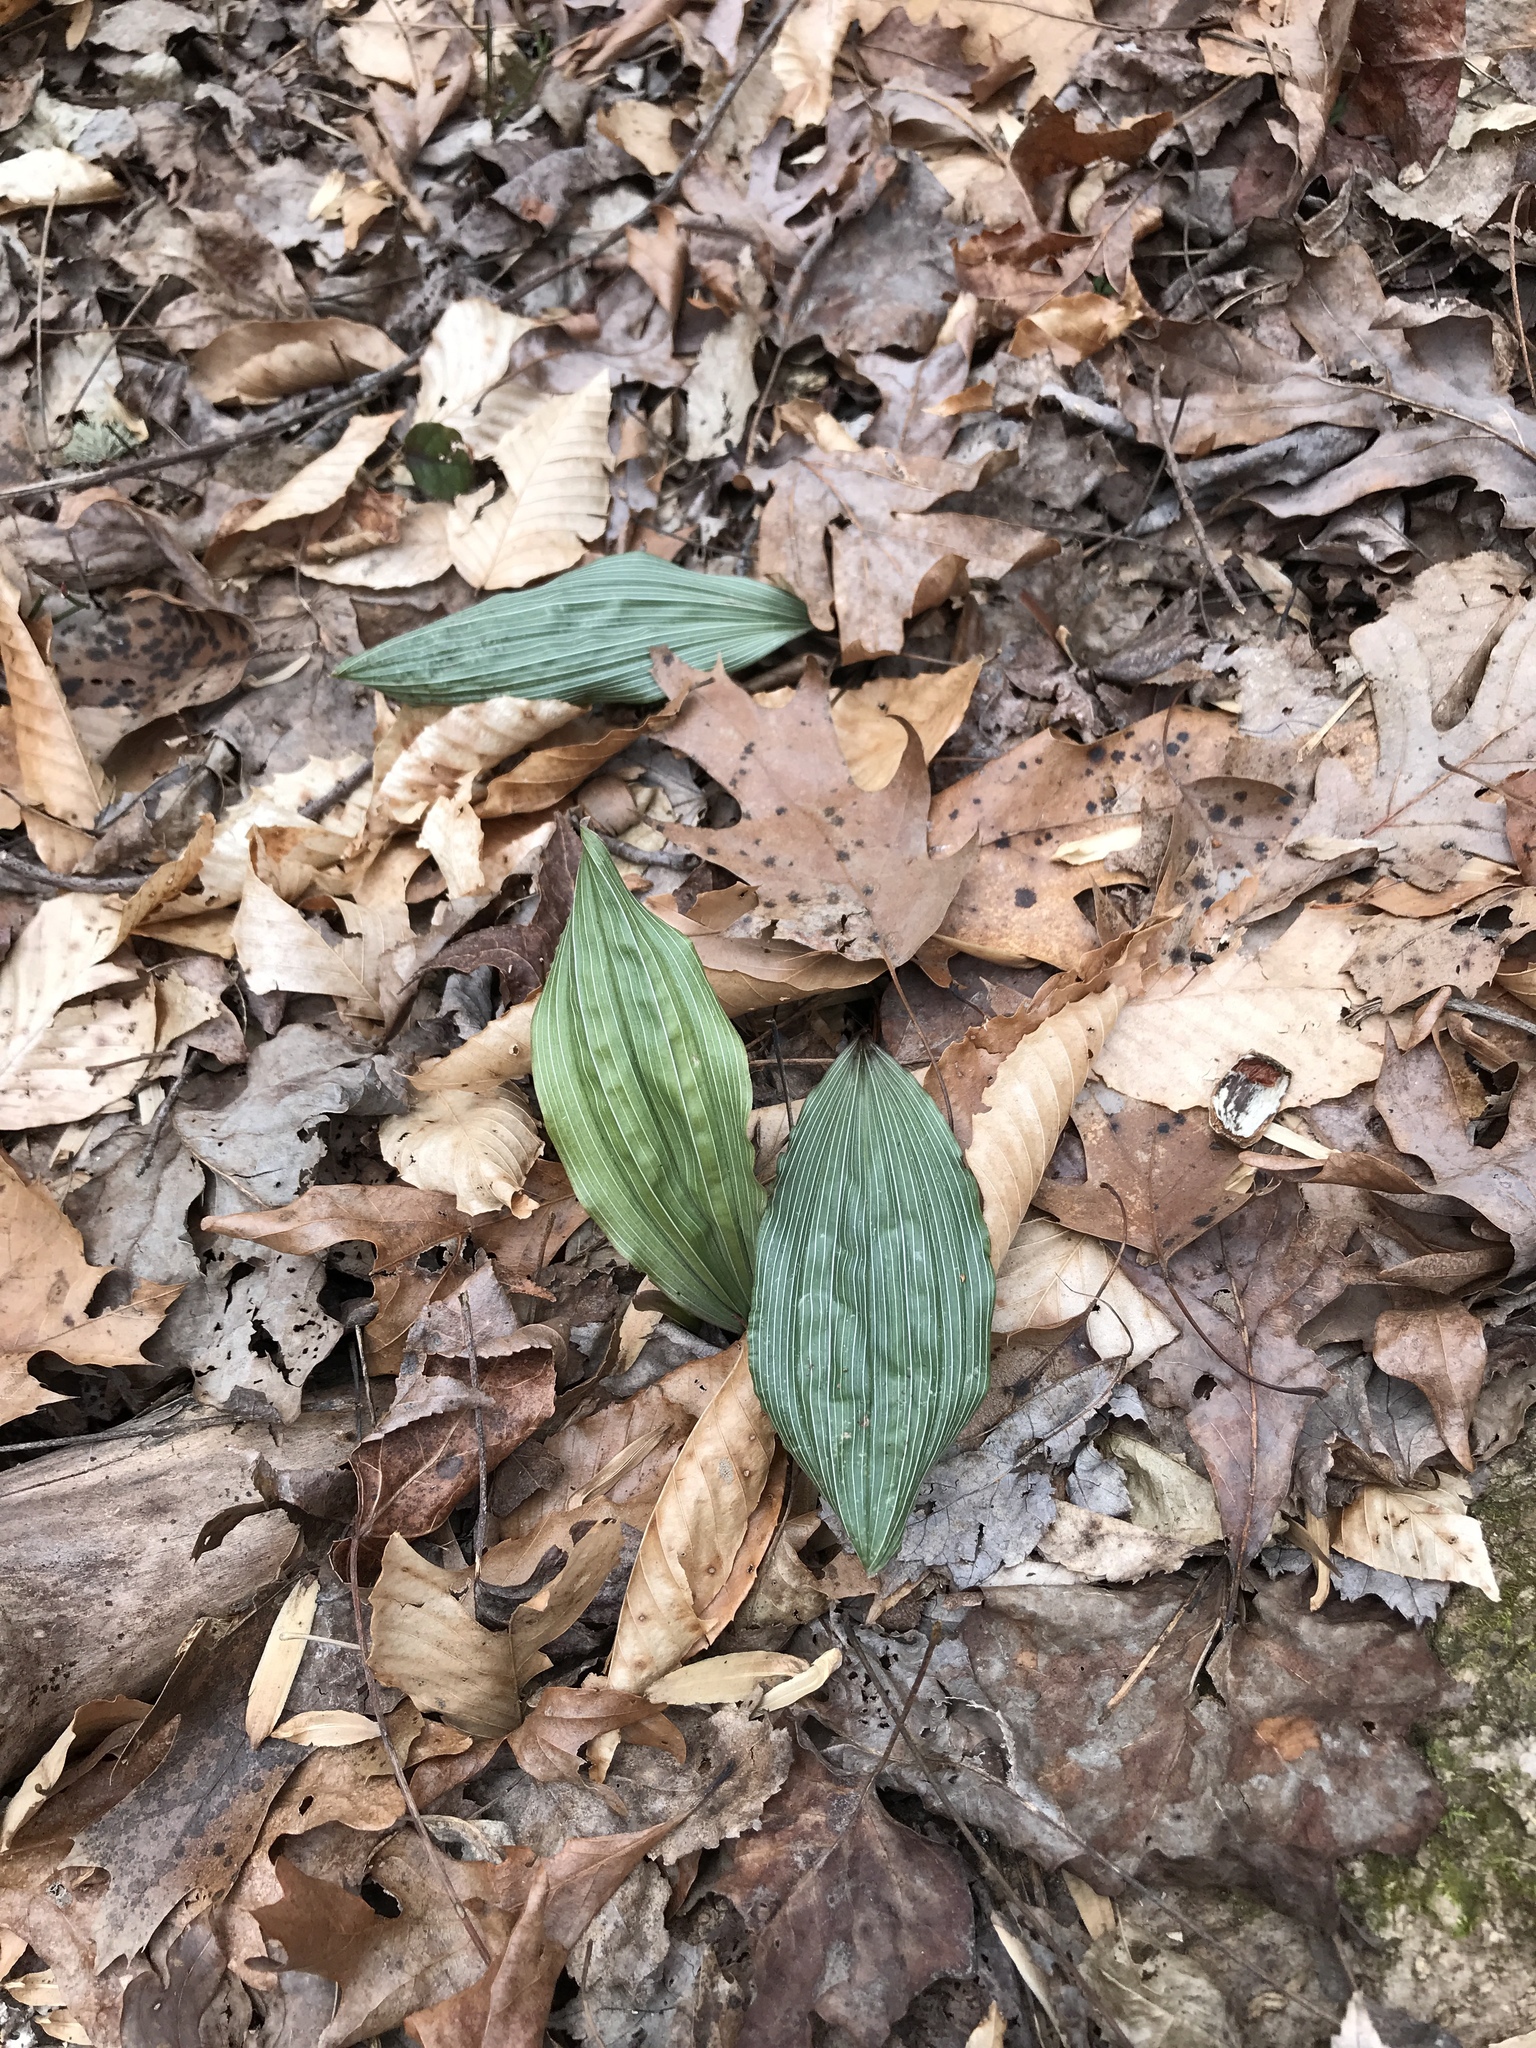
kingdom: Plantae
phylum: Tracheophyta
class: Liliopsida
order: Asparagales
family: Orchidaceae
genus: Aplectrum
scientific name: Aplectrum hyemale
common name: Adam-and-eve
